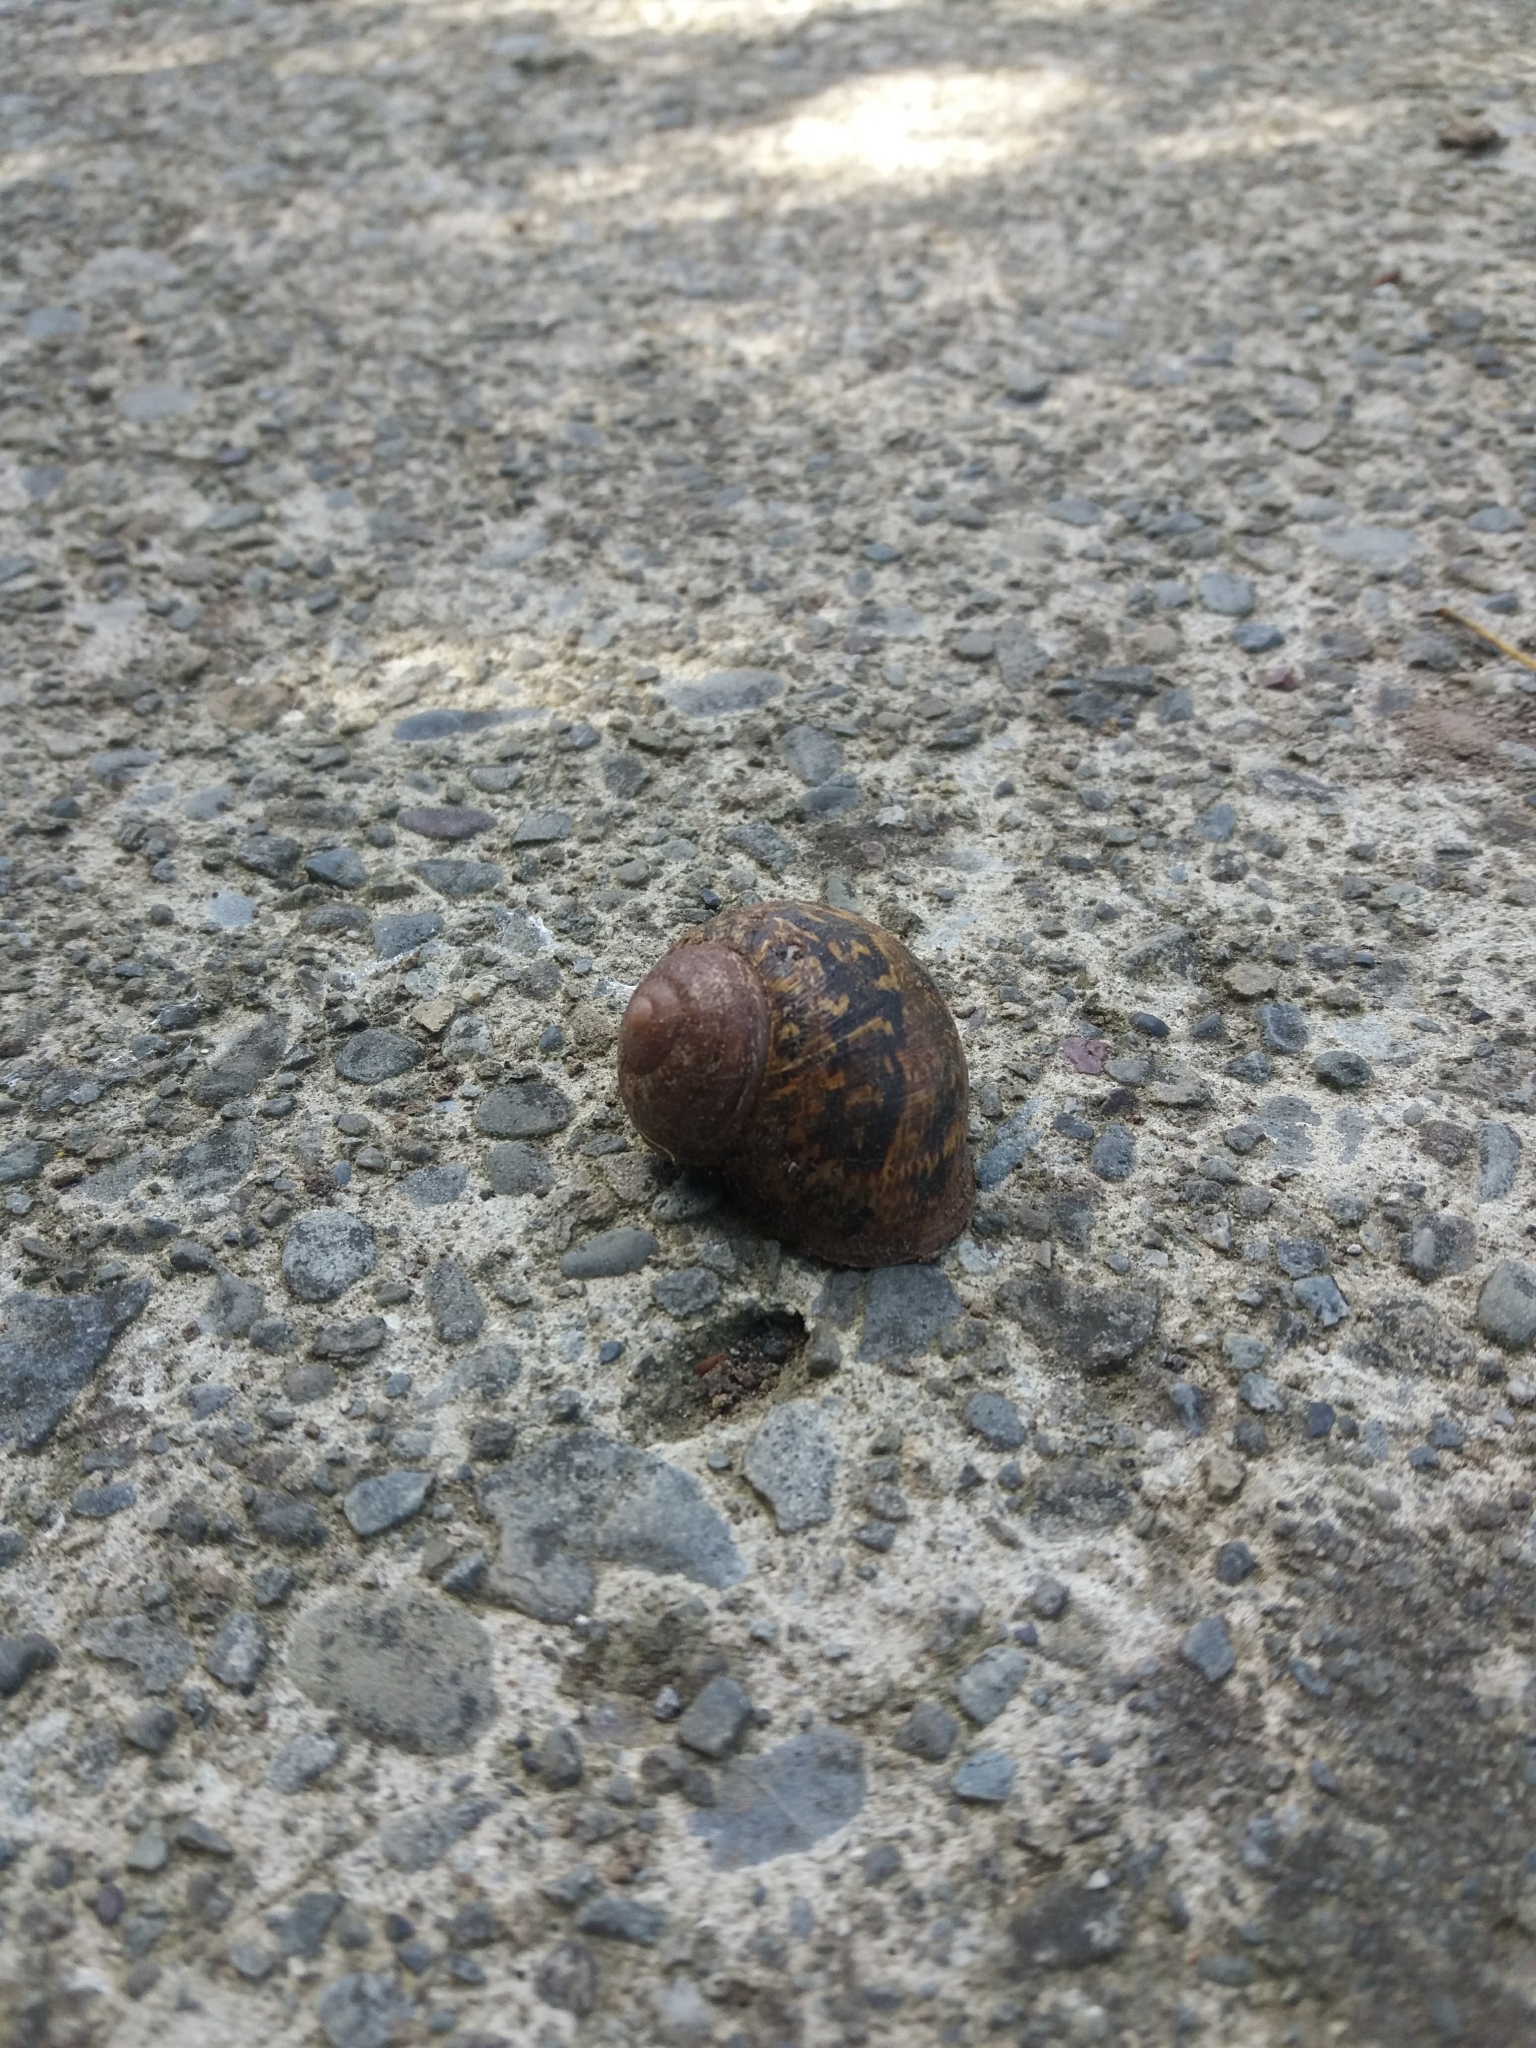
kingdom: Animalia
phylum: Mollusca
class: Gastropoda
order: Stylommatophora
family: Helicidae
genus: Cornu
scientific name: Cornu aspersum
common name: Brown garden snail
